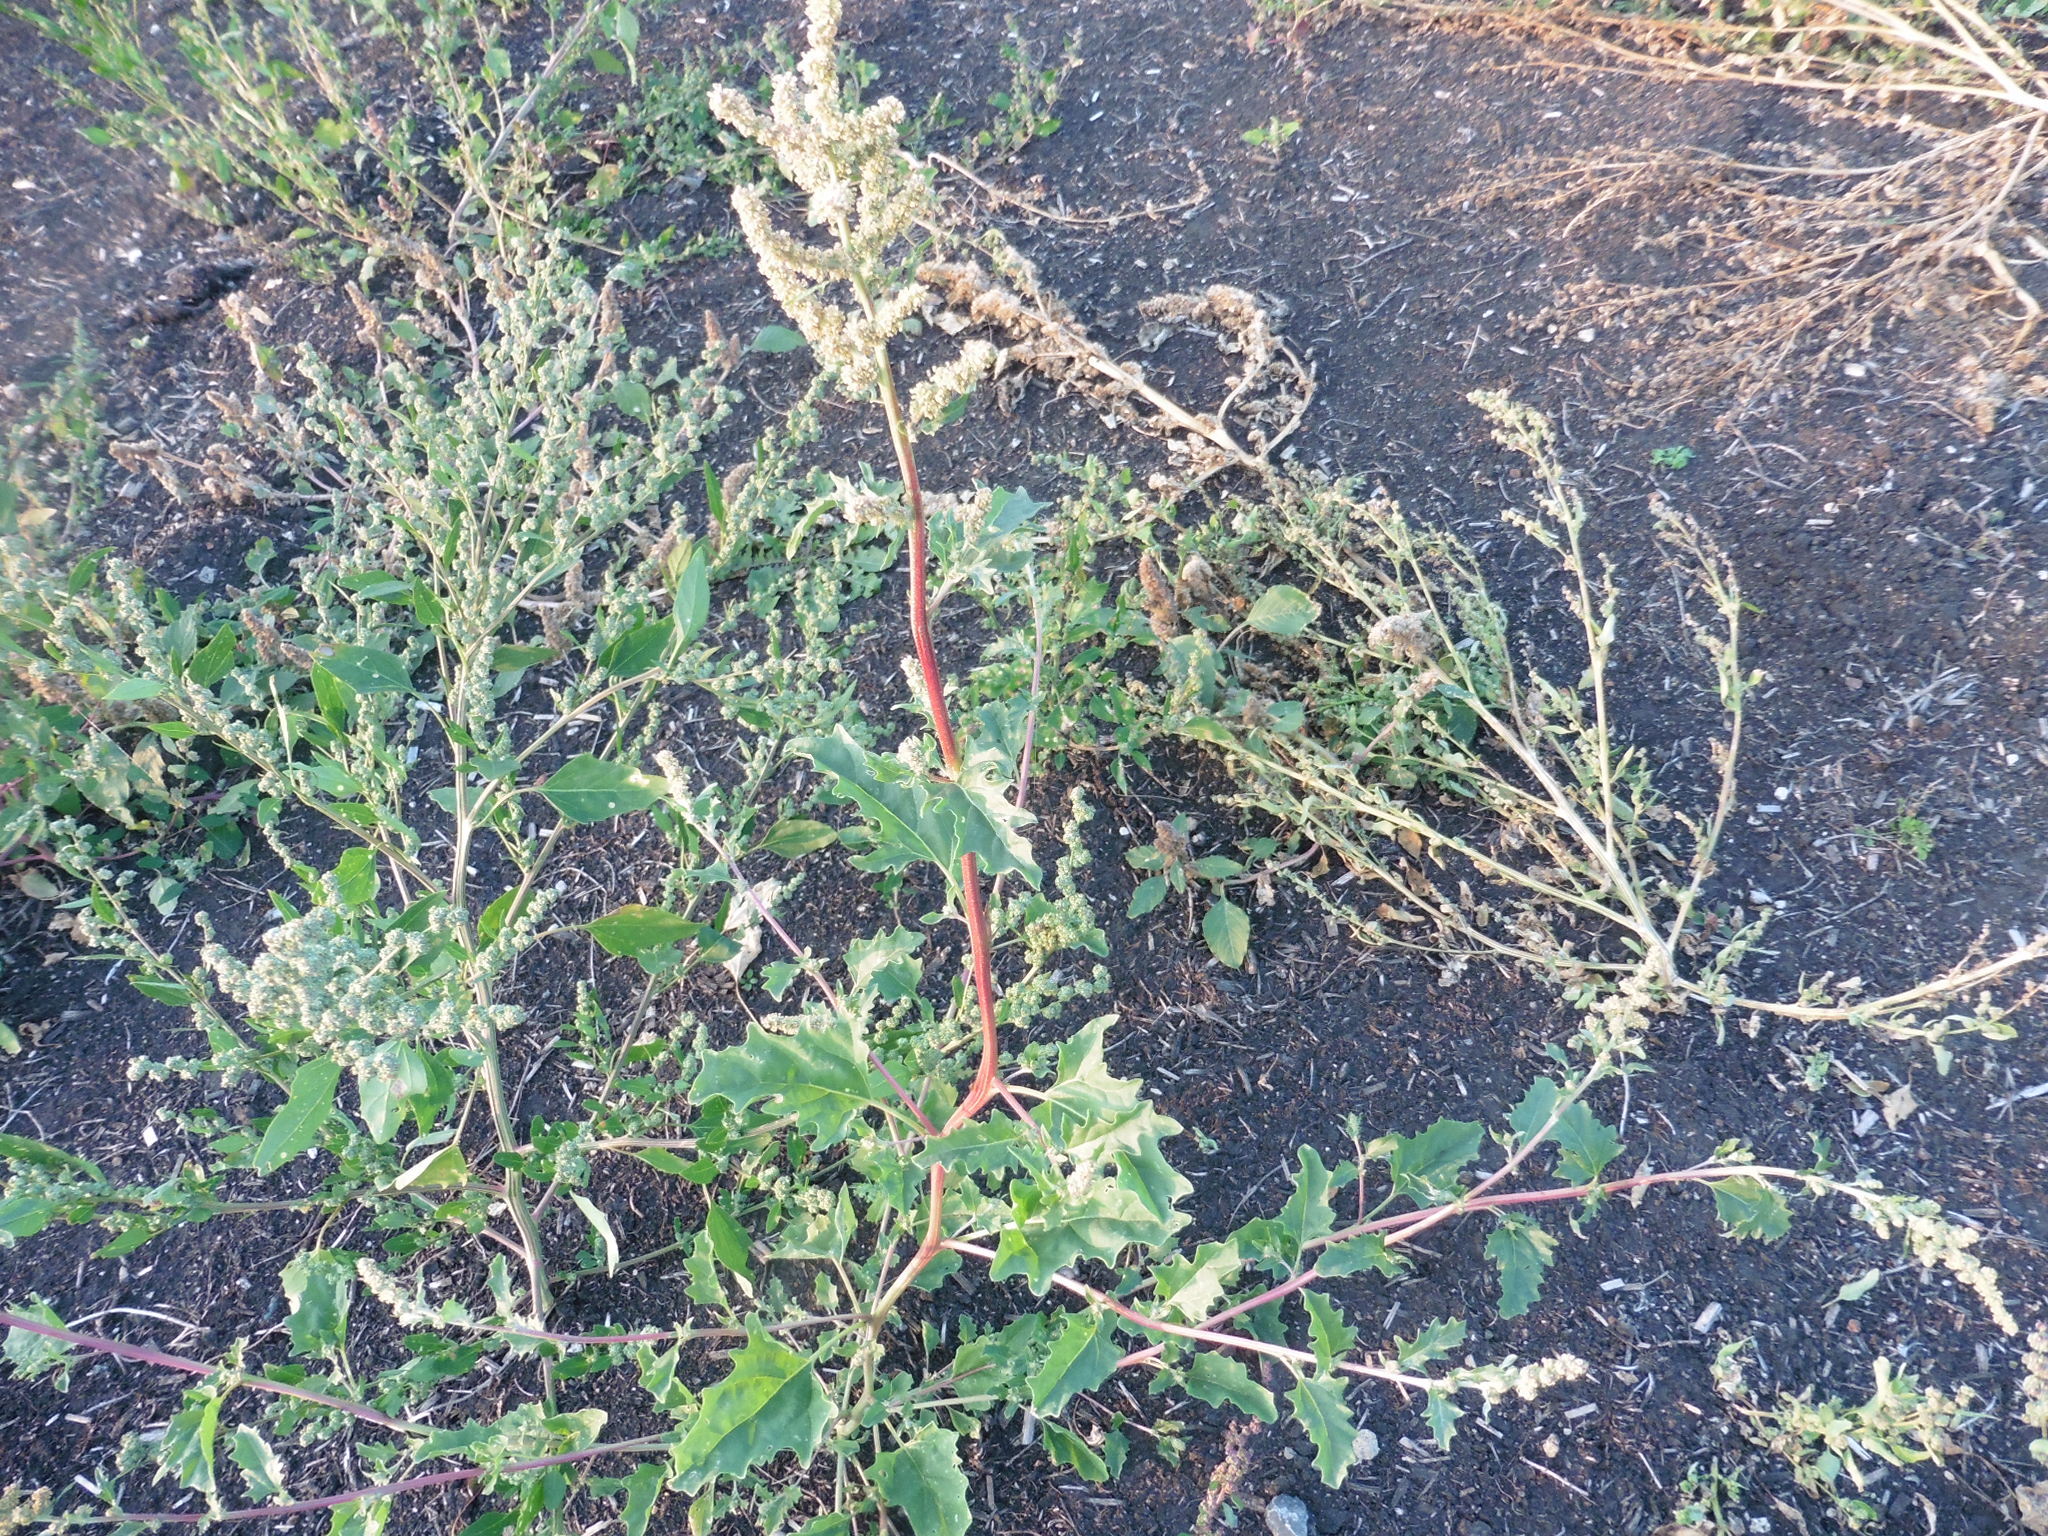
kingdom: Plantae
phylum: Tracheophyta
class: Magnoliopsida
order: Caryophyllales
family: Amaranthaceae
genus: Atriplex
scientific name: Atriplex tatarica
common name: Tatarian orache
